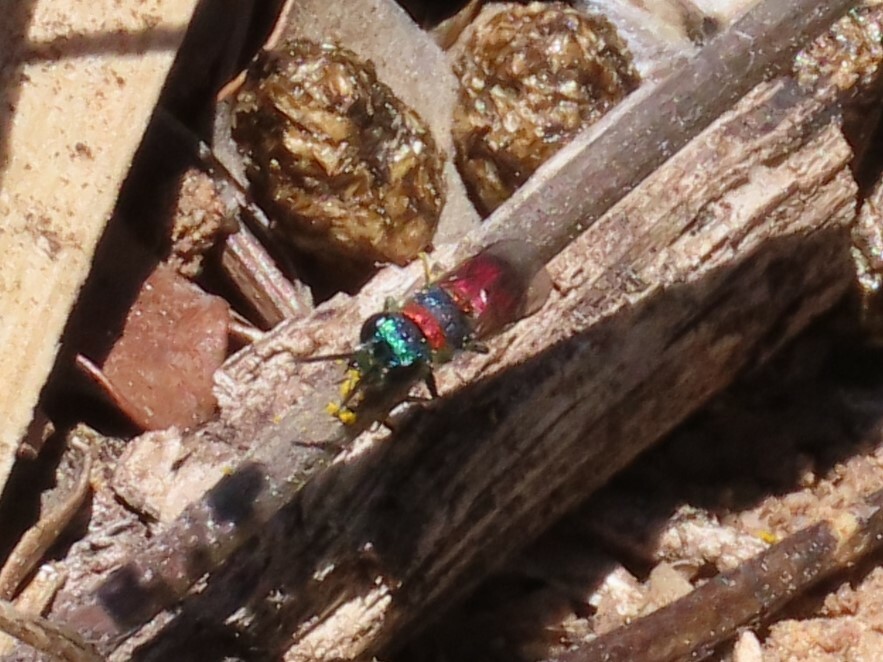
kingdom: Animalia
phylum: Arthropoda
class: Insecta
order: Hymenoptera
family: Chrysididae
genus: Pseudochrysis
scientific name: Pseudochrysis uniformis
